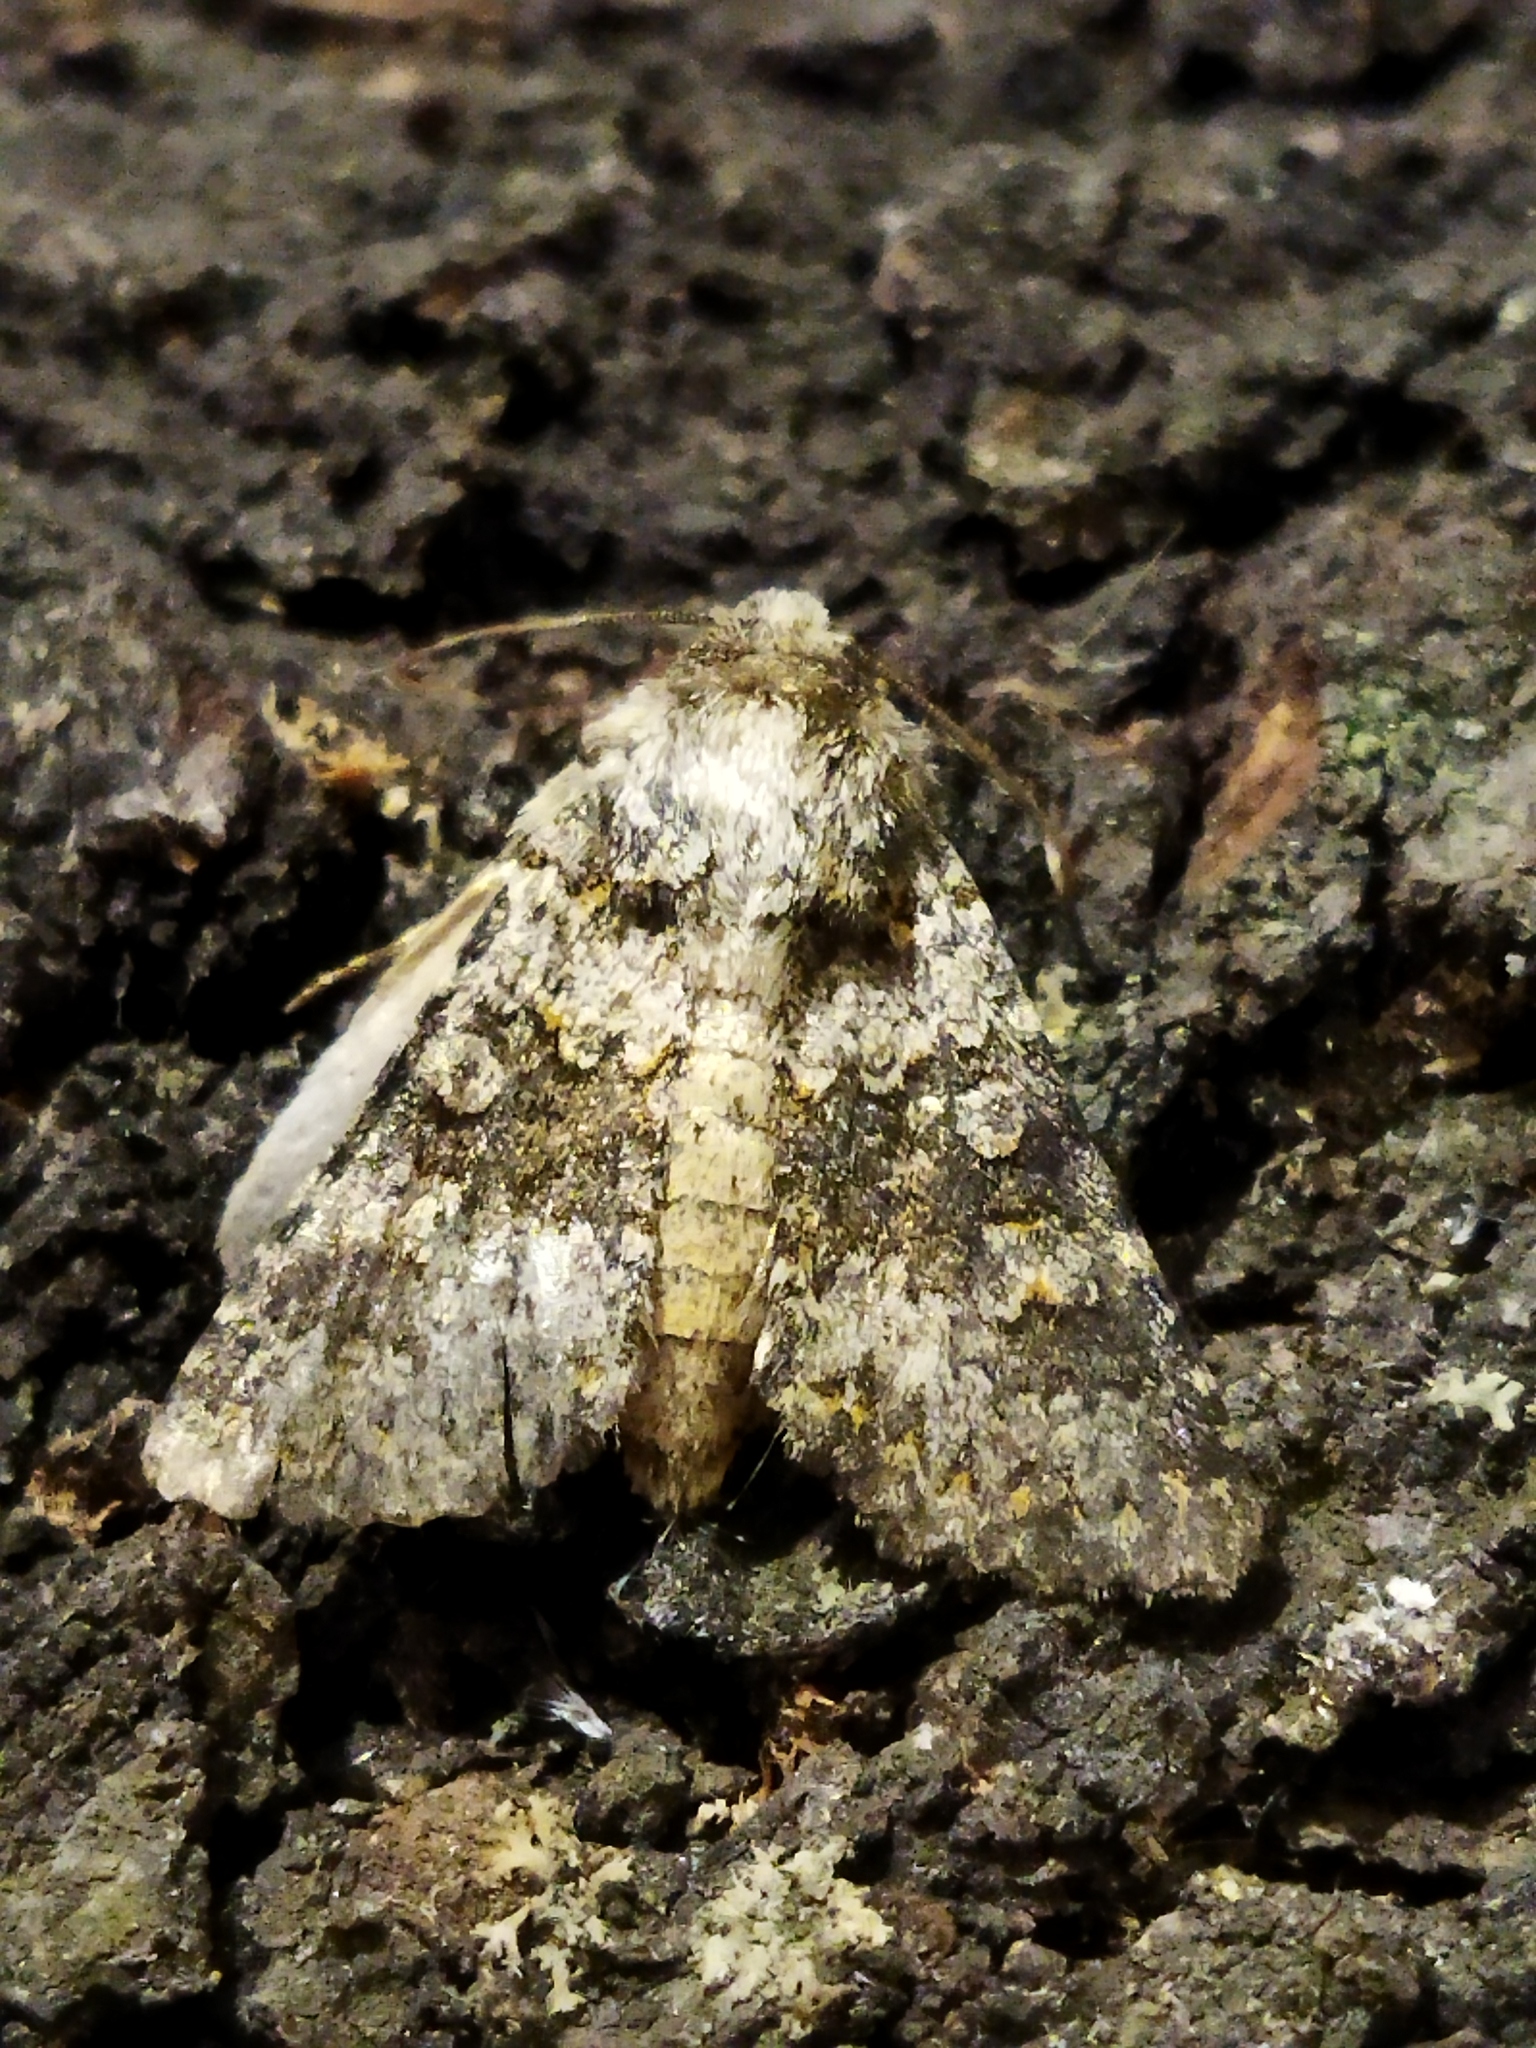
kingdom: Animalia
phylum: Arthropoda
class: Insecta
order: Lepidoptera
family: Noctuidae
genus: Hecatera
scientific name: Hecatera dysodea
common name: Small ranunculus
